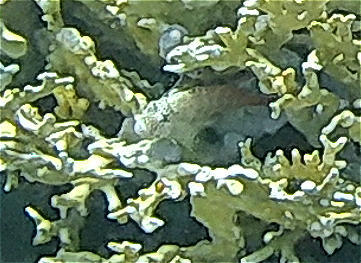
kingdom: Animalia
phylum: Chordata
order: Perciformes
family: Blenniidae
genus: Exallias
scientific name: Exallias brevis
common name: Leopard blenny
